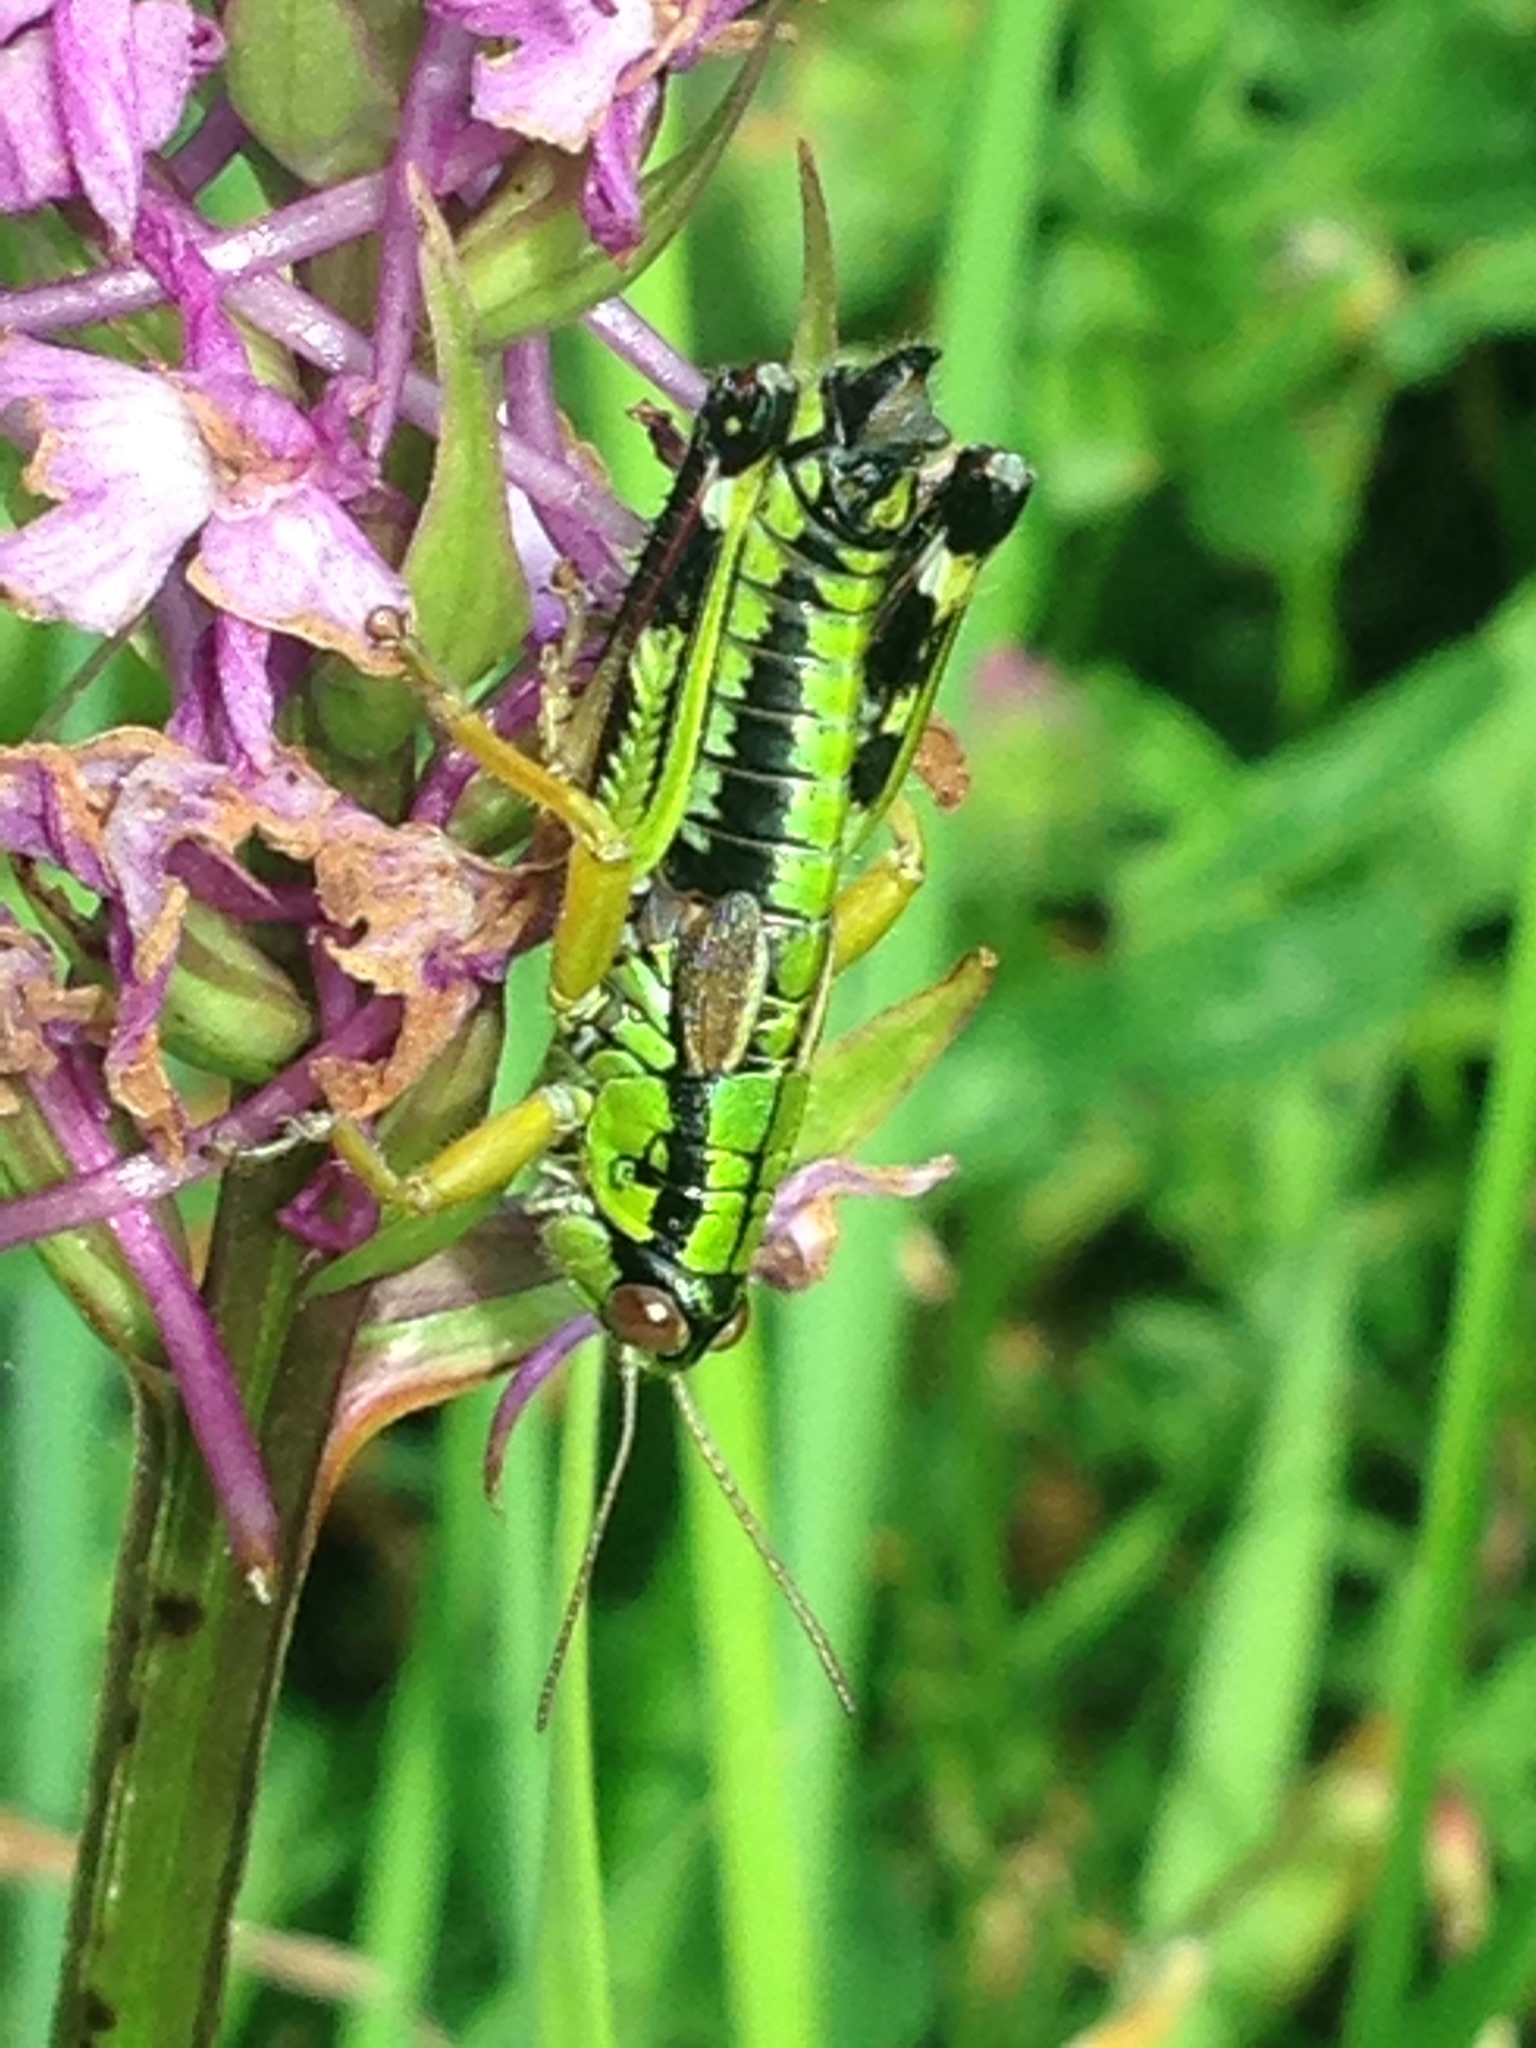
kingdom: Animalia
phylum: Arthropoda
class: Insecta
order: Orthoptera
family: Acrididae
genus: Miramella
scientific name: Miramella alpina
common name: Green mountain grasshopper
